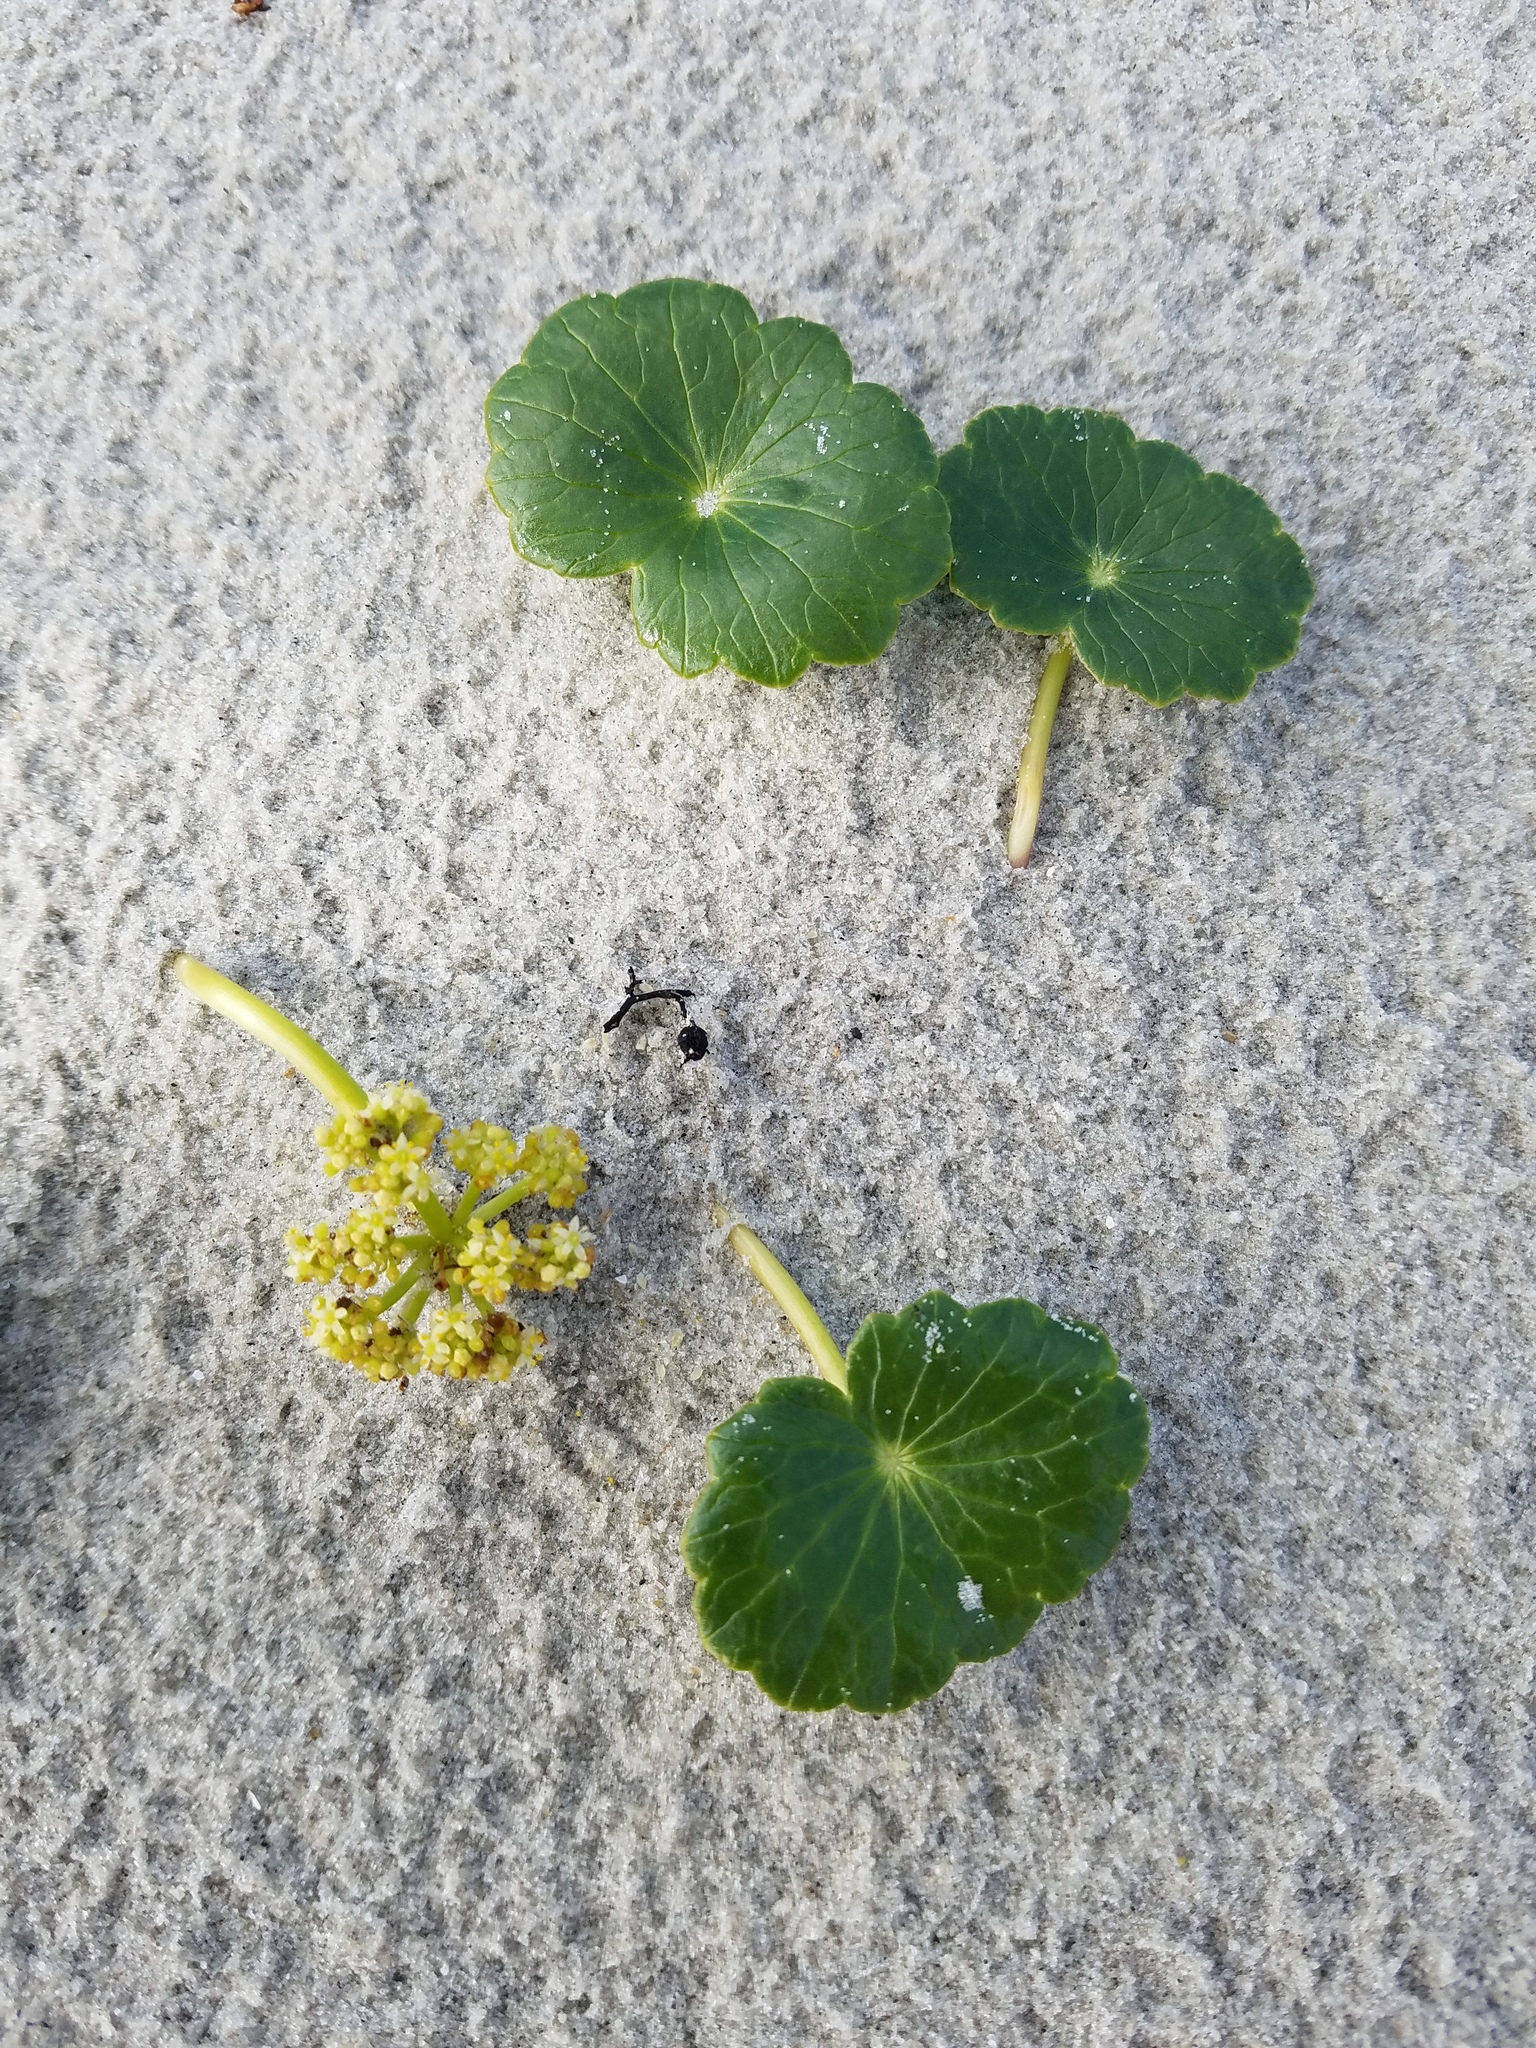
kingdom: Plantae
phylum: Tracheophyta
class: Magnoliopsida
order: Apiales
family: Araliaceae
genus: Hydrocotyle
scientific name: Hydrocotyle bonariensis
